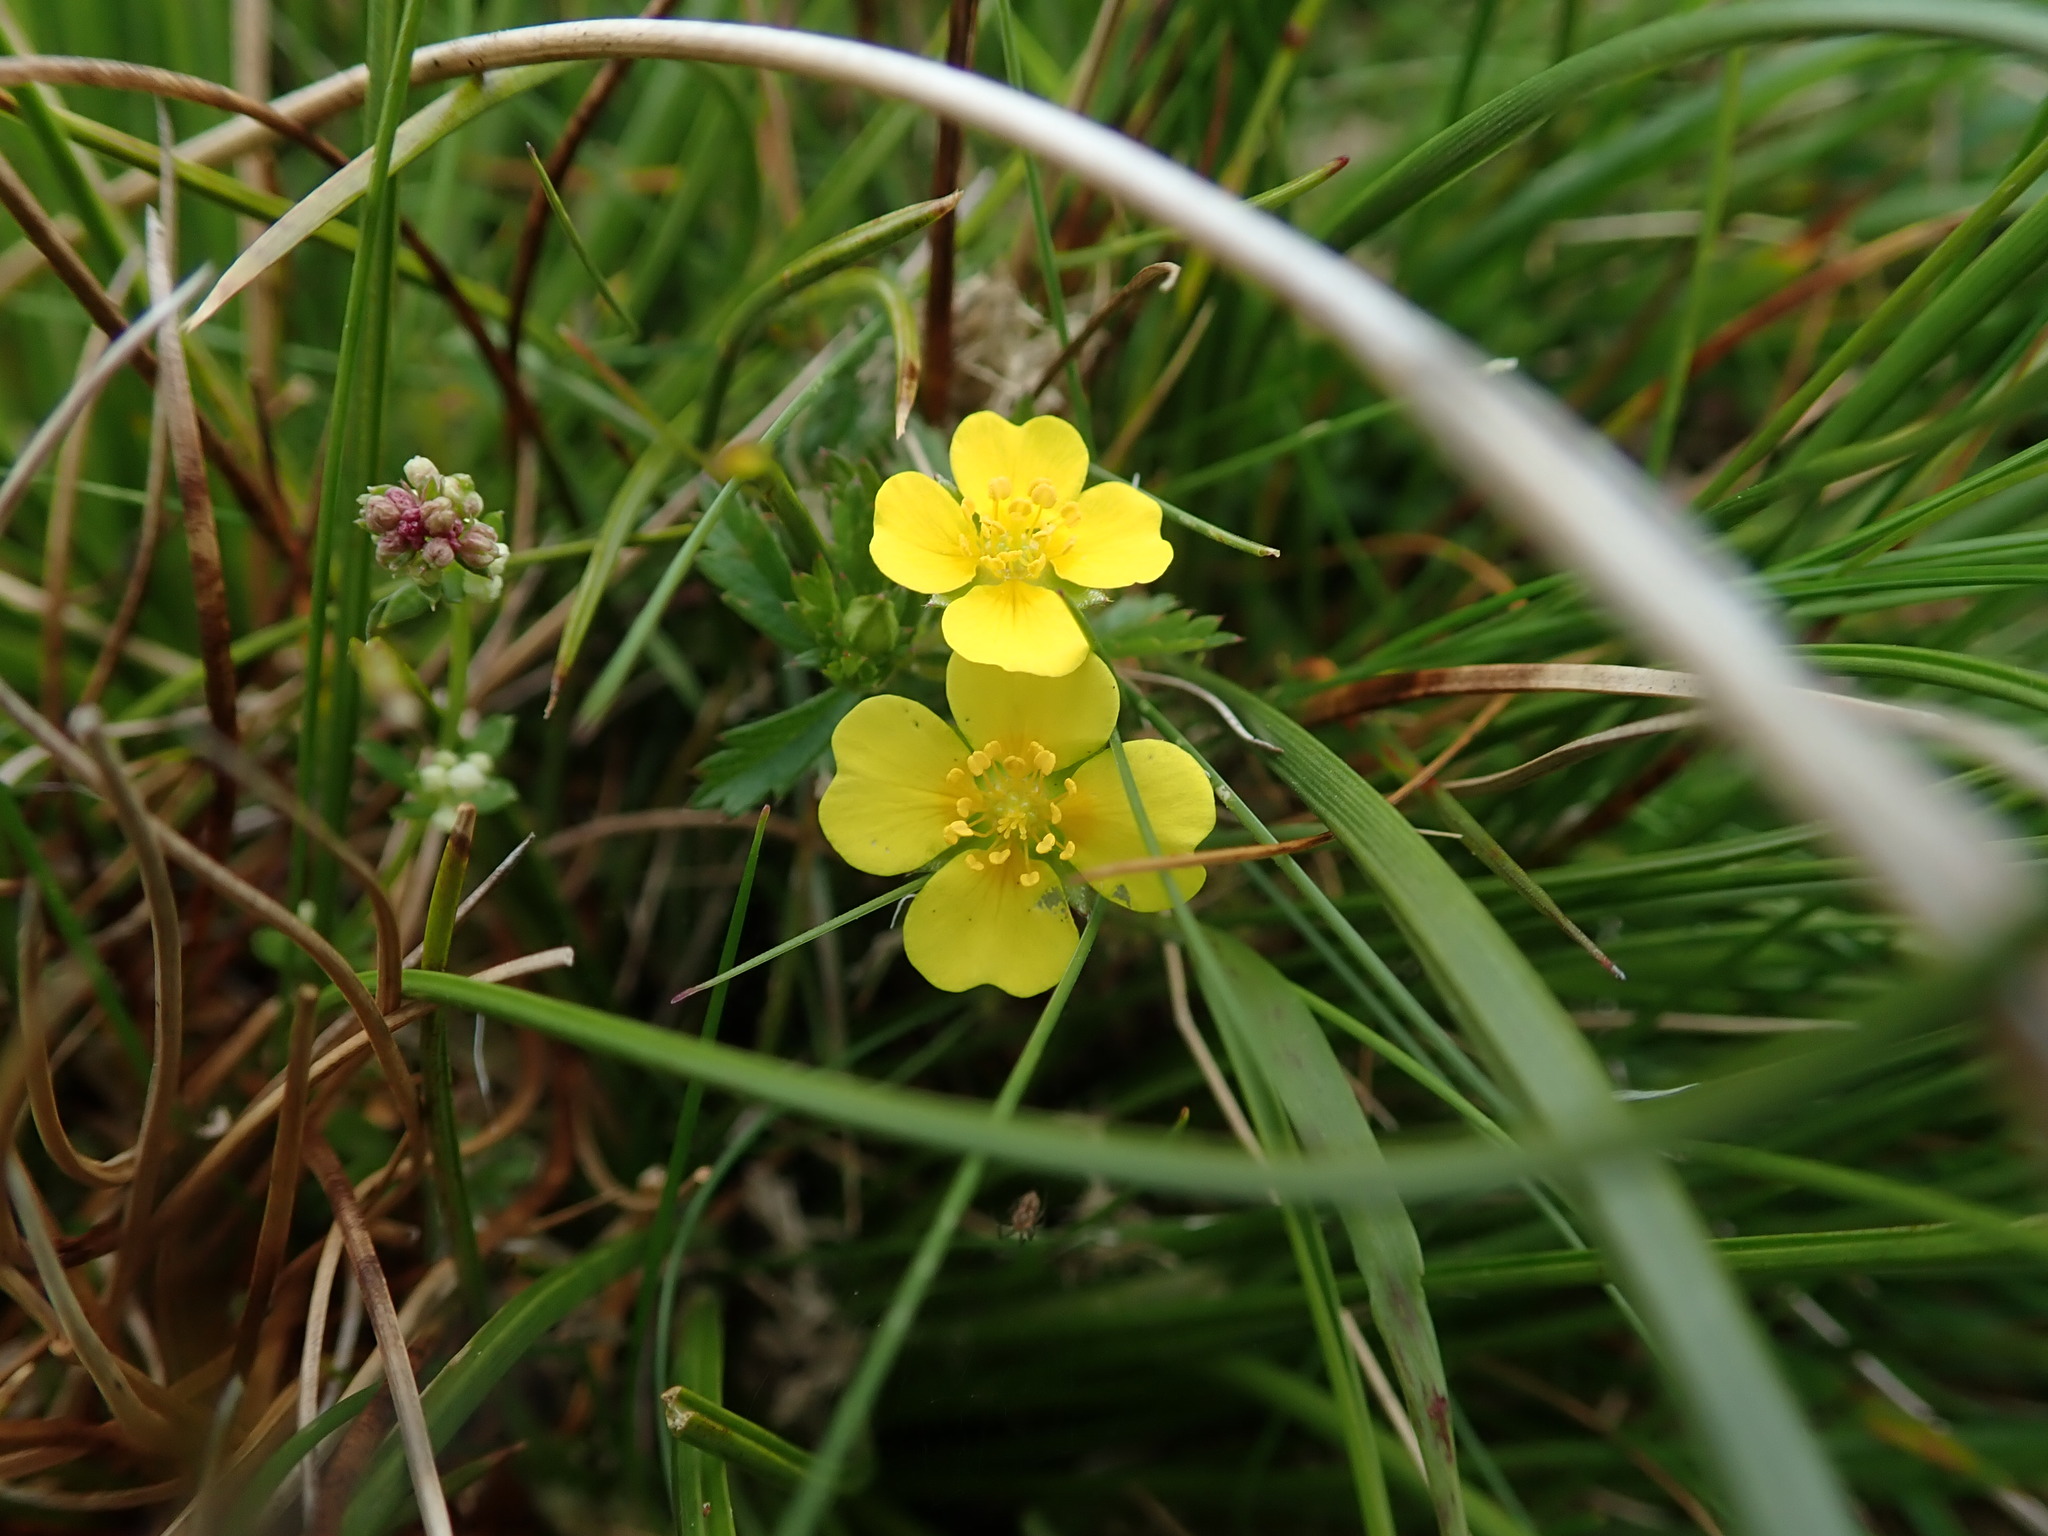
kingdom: Plantae
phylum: Tracheophyta
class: Magnoliopsida
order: Rosales
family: Rosaceae
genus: Potentilla
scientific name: Potentilla erecta
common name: Tormentil
